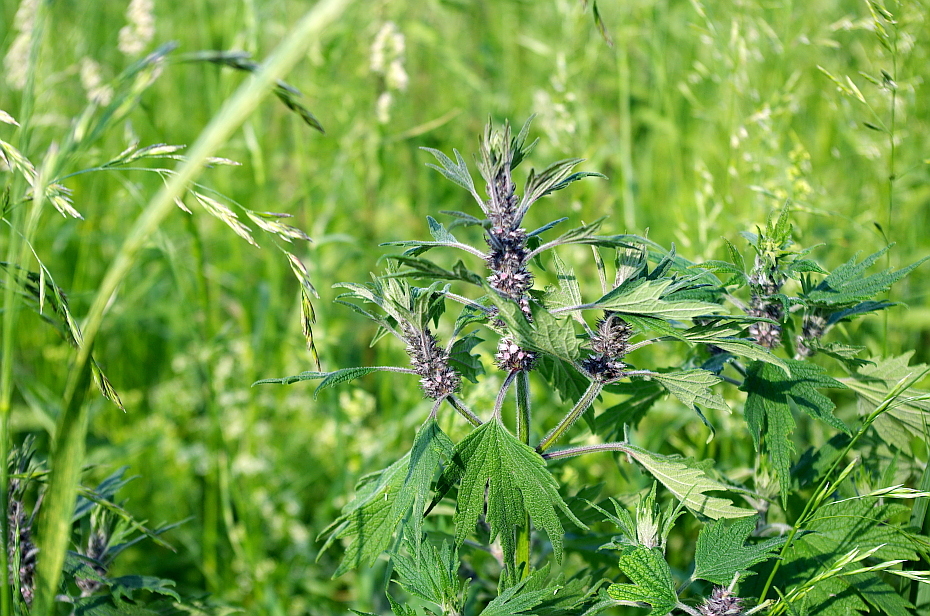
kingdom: Plantae
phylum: Tracheophyta
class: Magnoliopsida
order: Lamiales
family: Lamiaceae
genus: Leonurus
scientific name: Leonurus quinquelobatus
